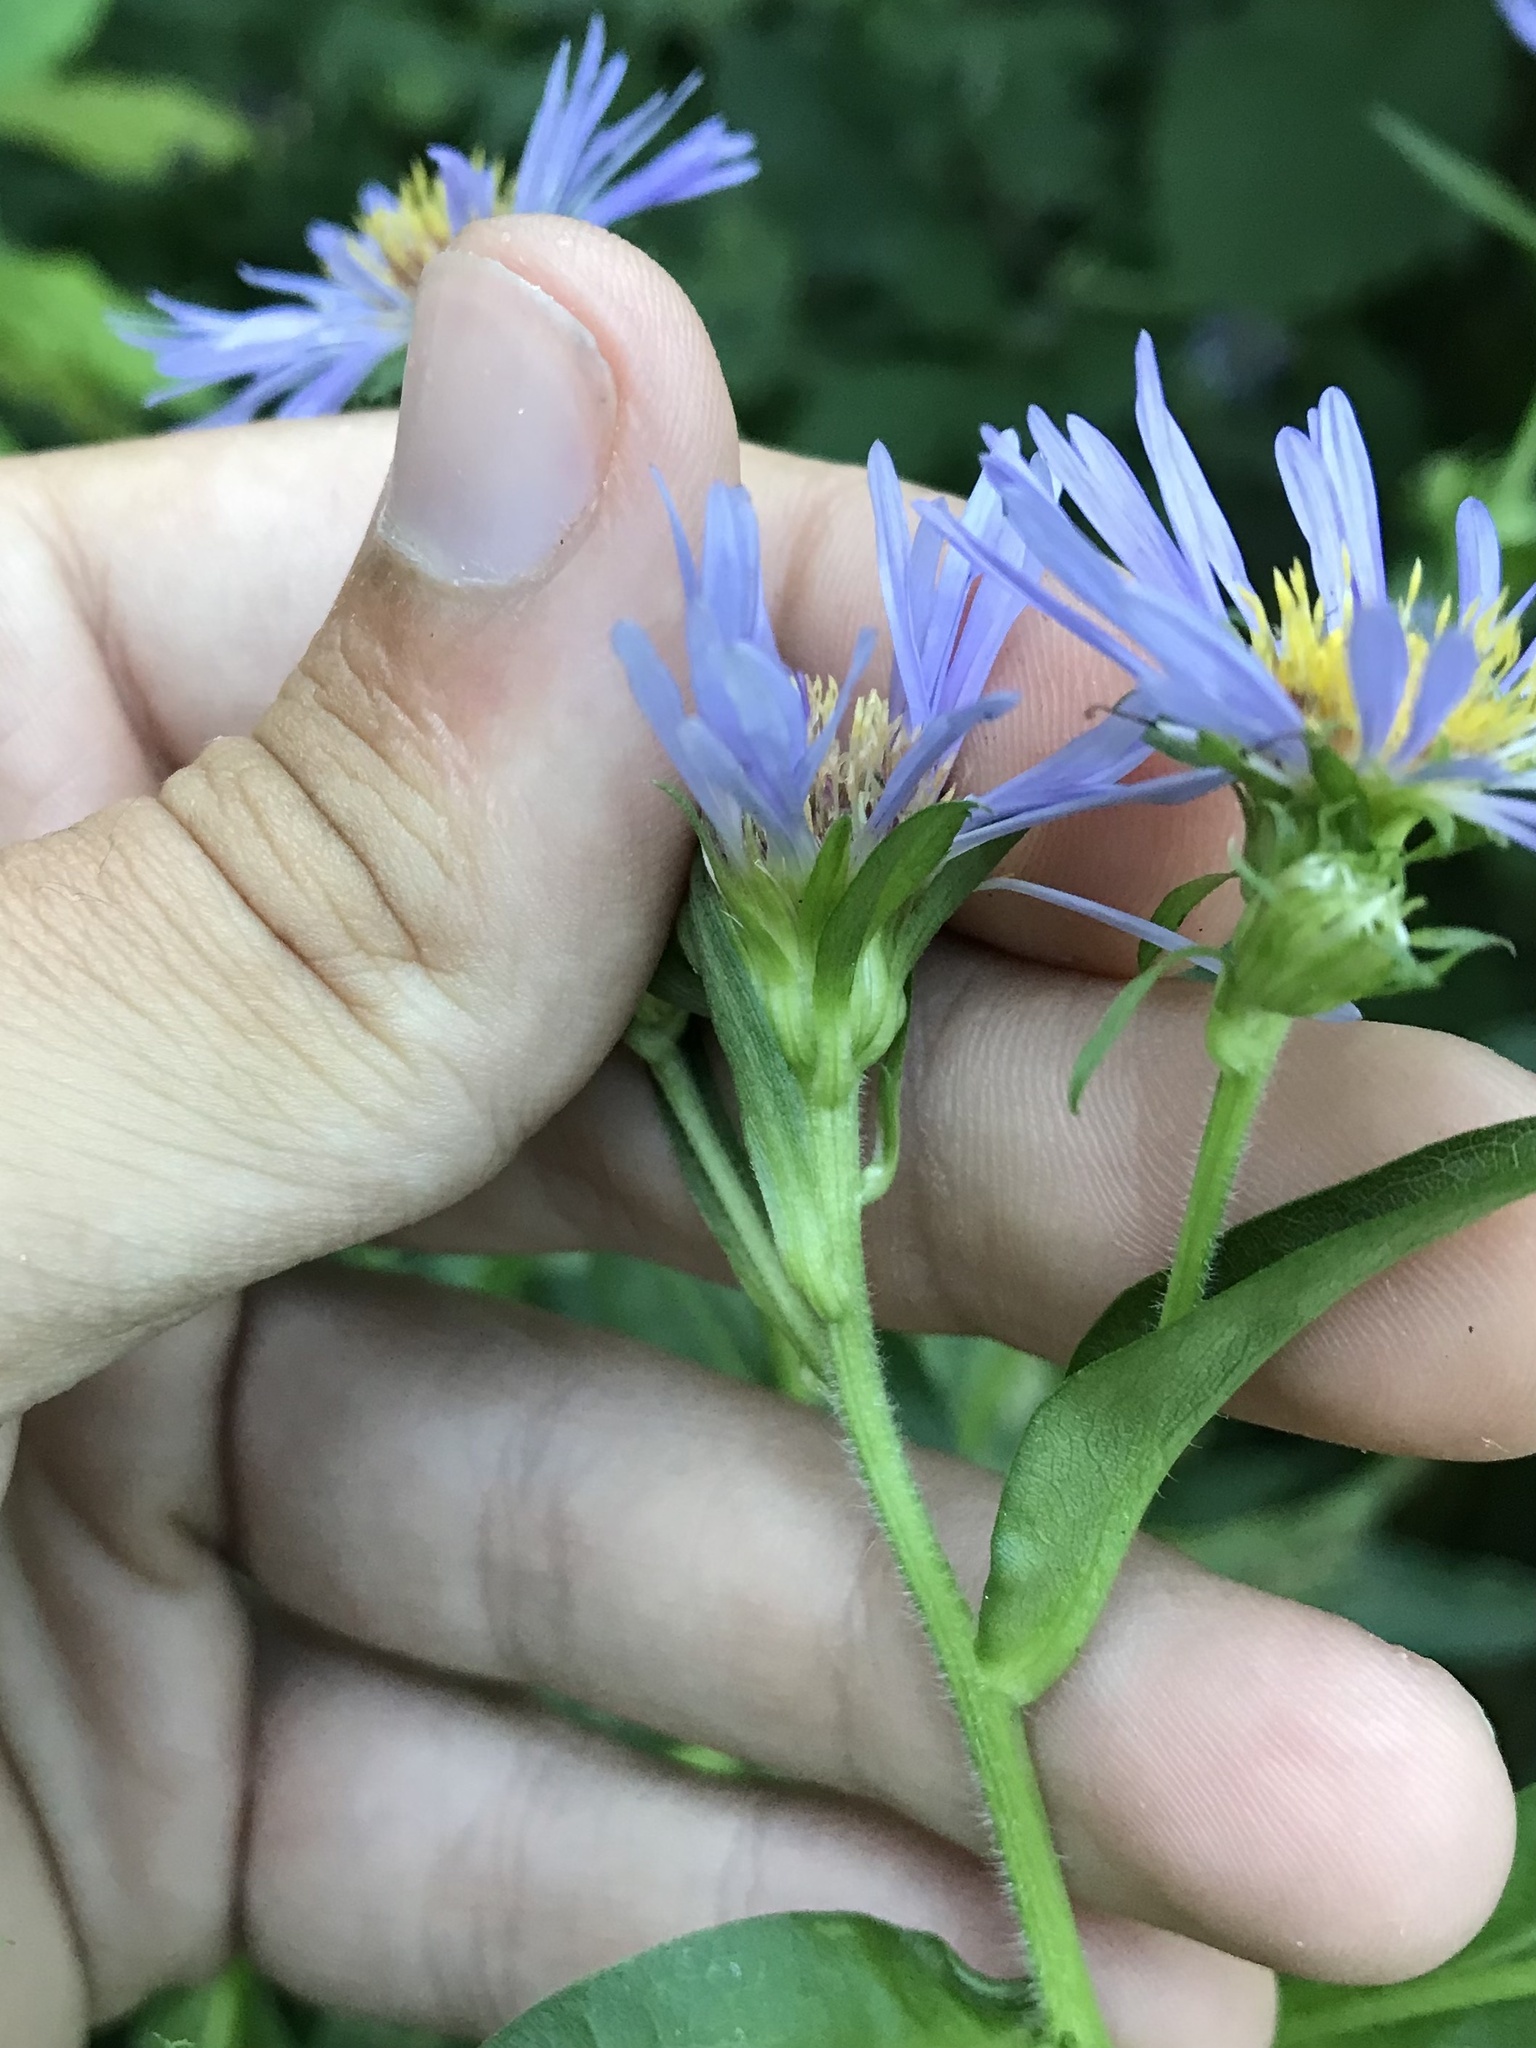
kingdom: Plantae
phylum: Tracheophyta
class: Magnoliopsida
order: Asterales
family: Asteraceae
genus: Symphyotrichum
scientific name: Symphyotrichum puniceum
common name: Bog aster
